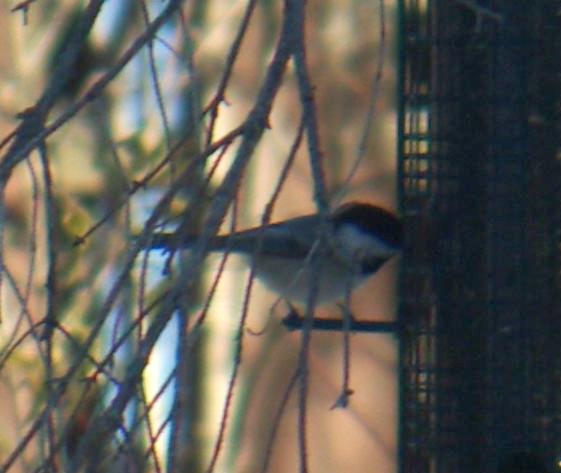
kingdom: Animalia
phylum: Chordata
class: Aves
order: Passeriformes
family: Paridae
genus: Poecile
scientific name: Poecile atricapillus
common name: Black-capped chickadee
